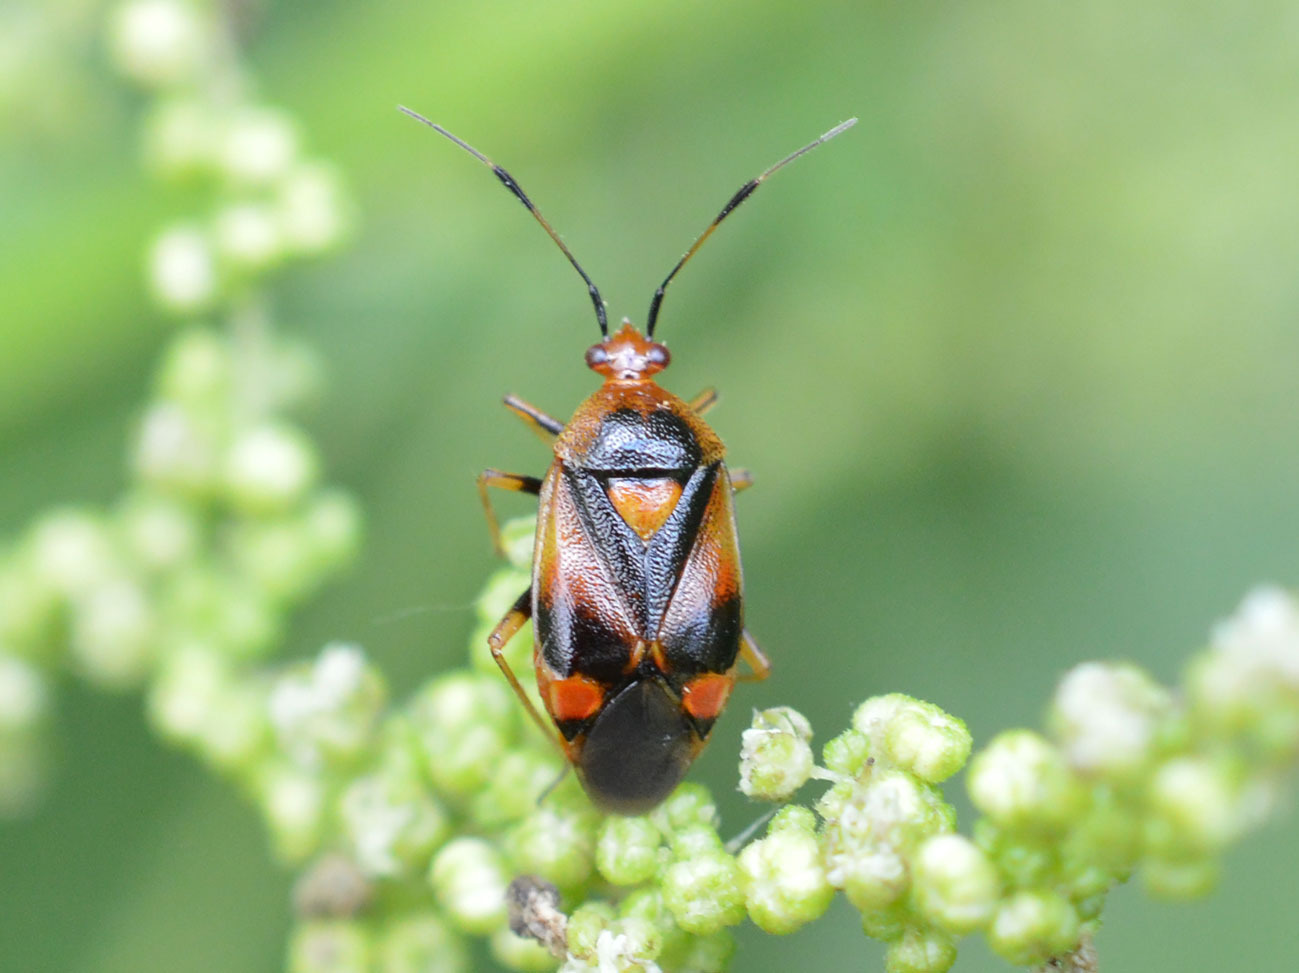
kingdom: Animalia
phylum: Arthropoda
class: Insecta
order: Hemiptera
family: Miridae
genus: Deraeocoris
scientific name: Deraeocoris ruber
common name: Plant bug
